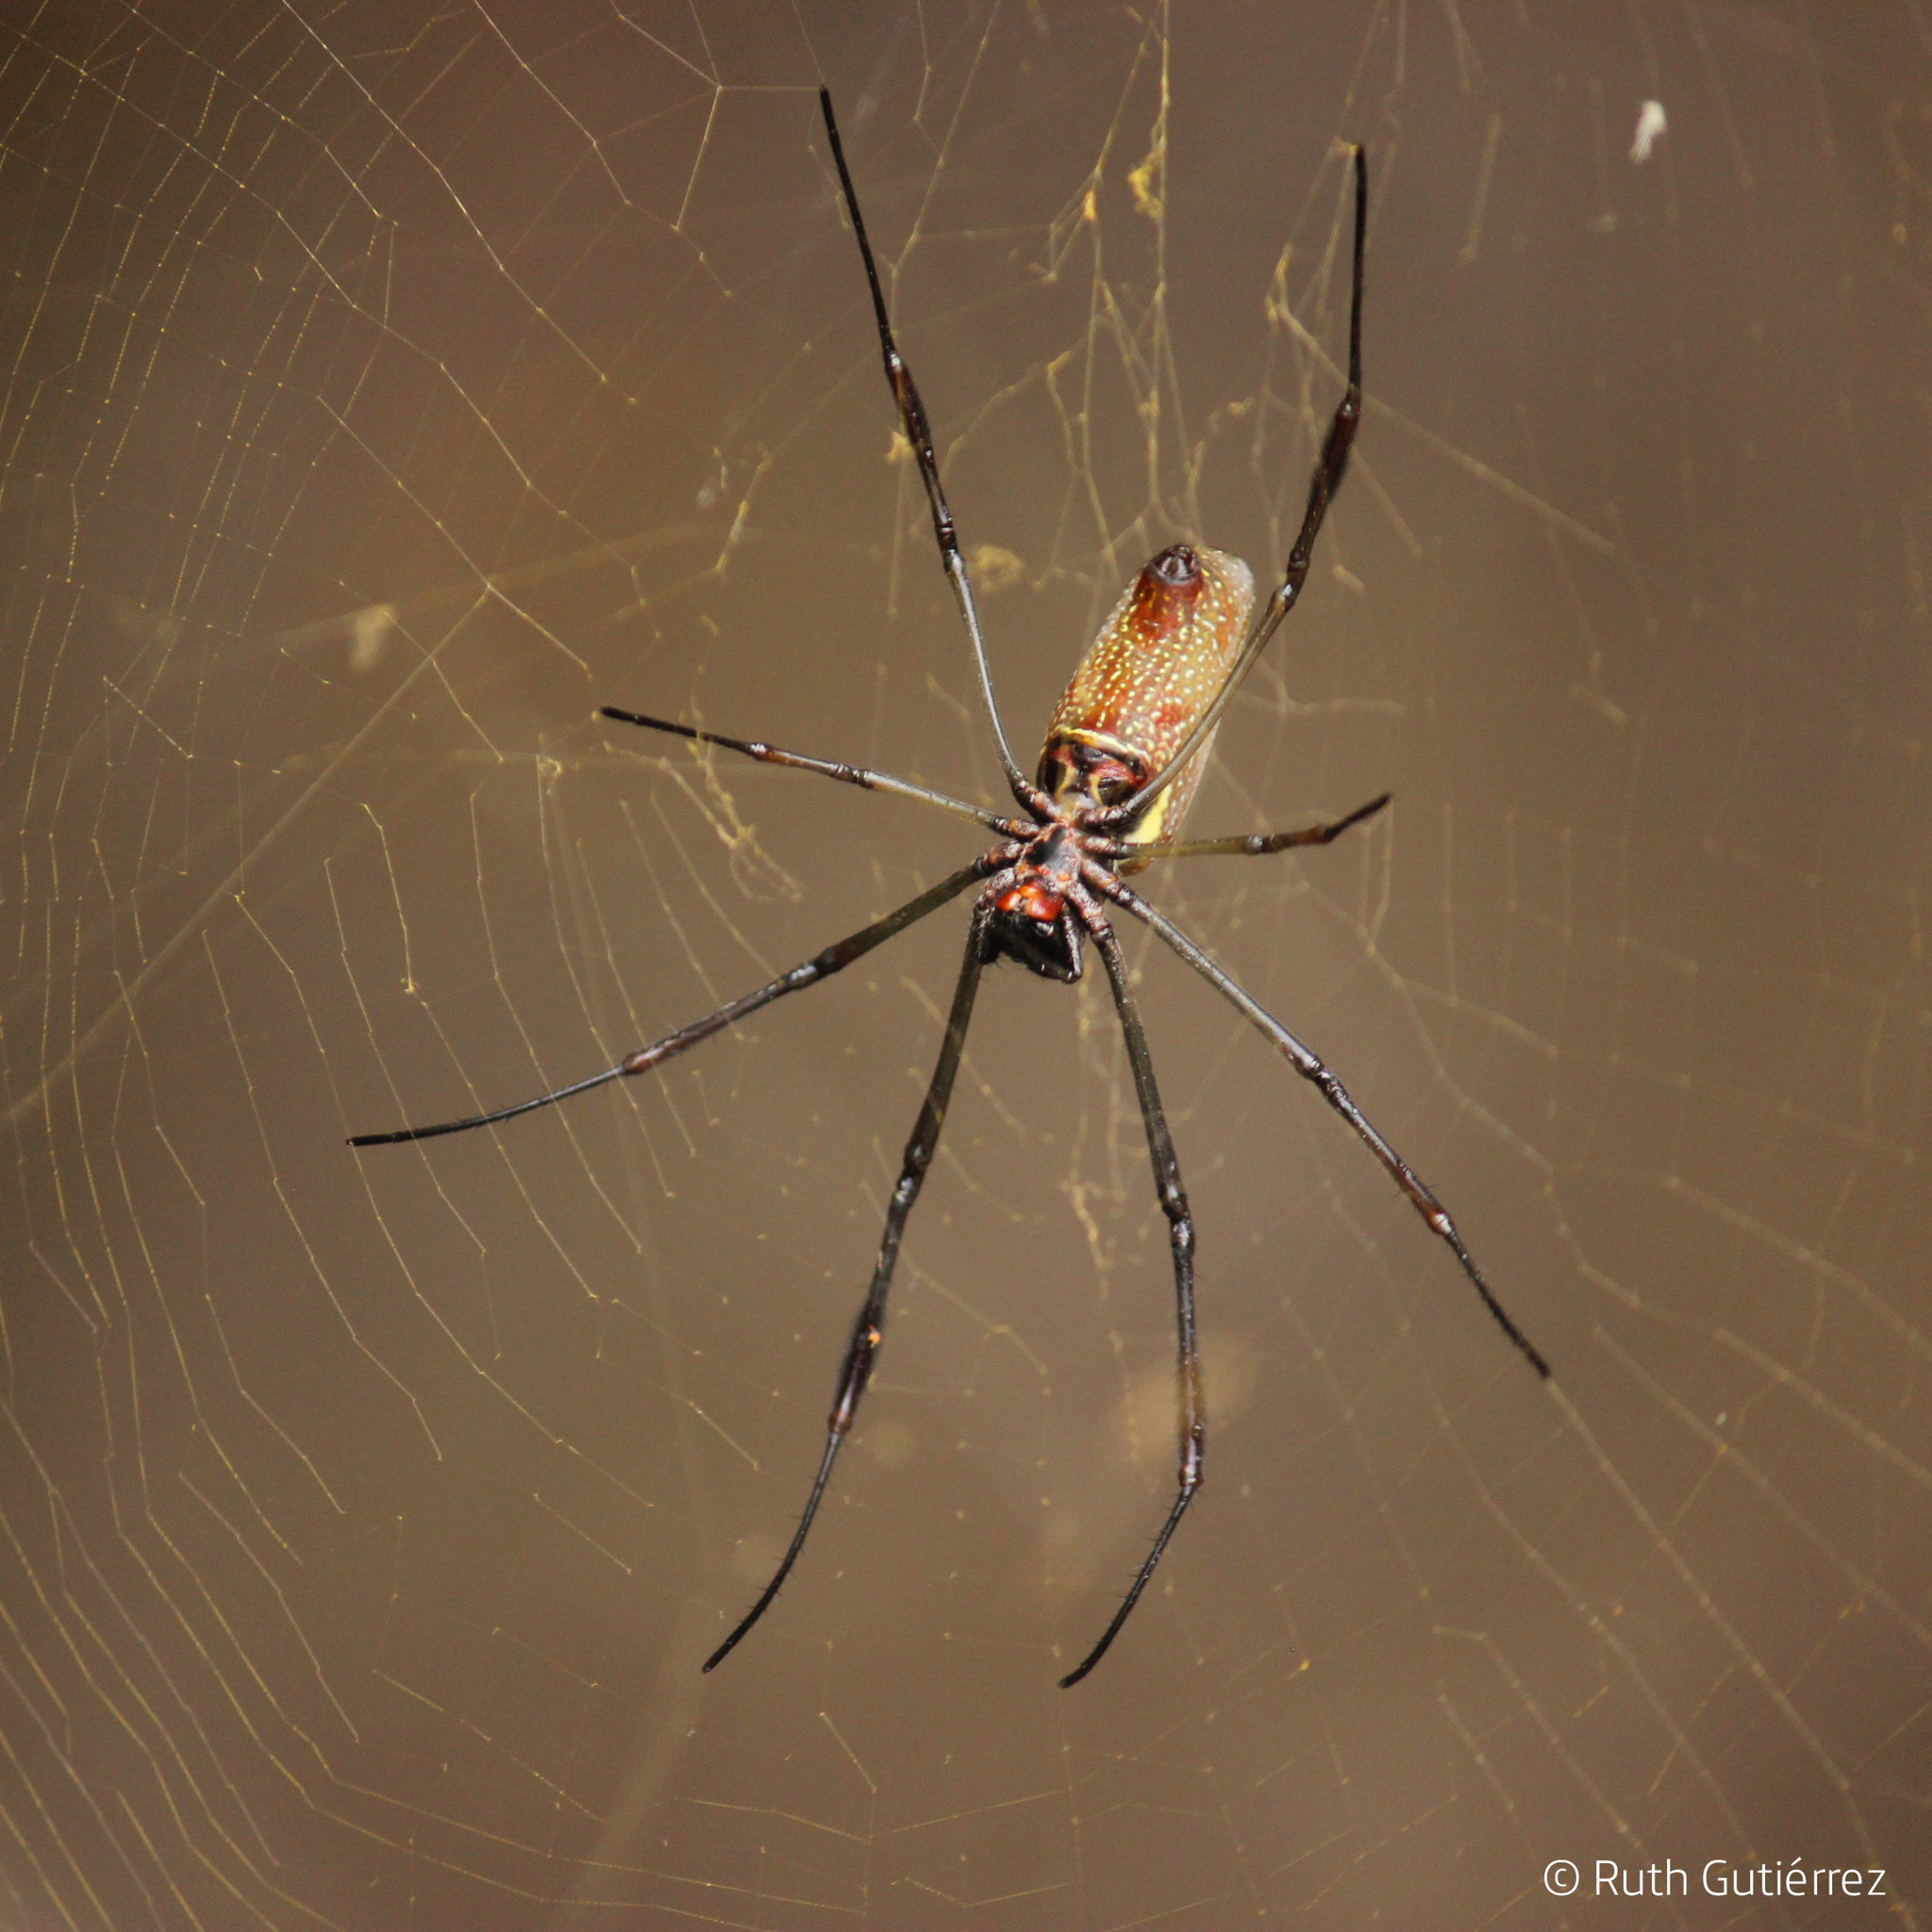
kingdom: Animalia
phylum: Arthropoda
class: Arachnida
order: Araneae
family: Araneidae
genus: Trichonephila
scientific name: Trichonephila clavipes
